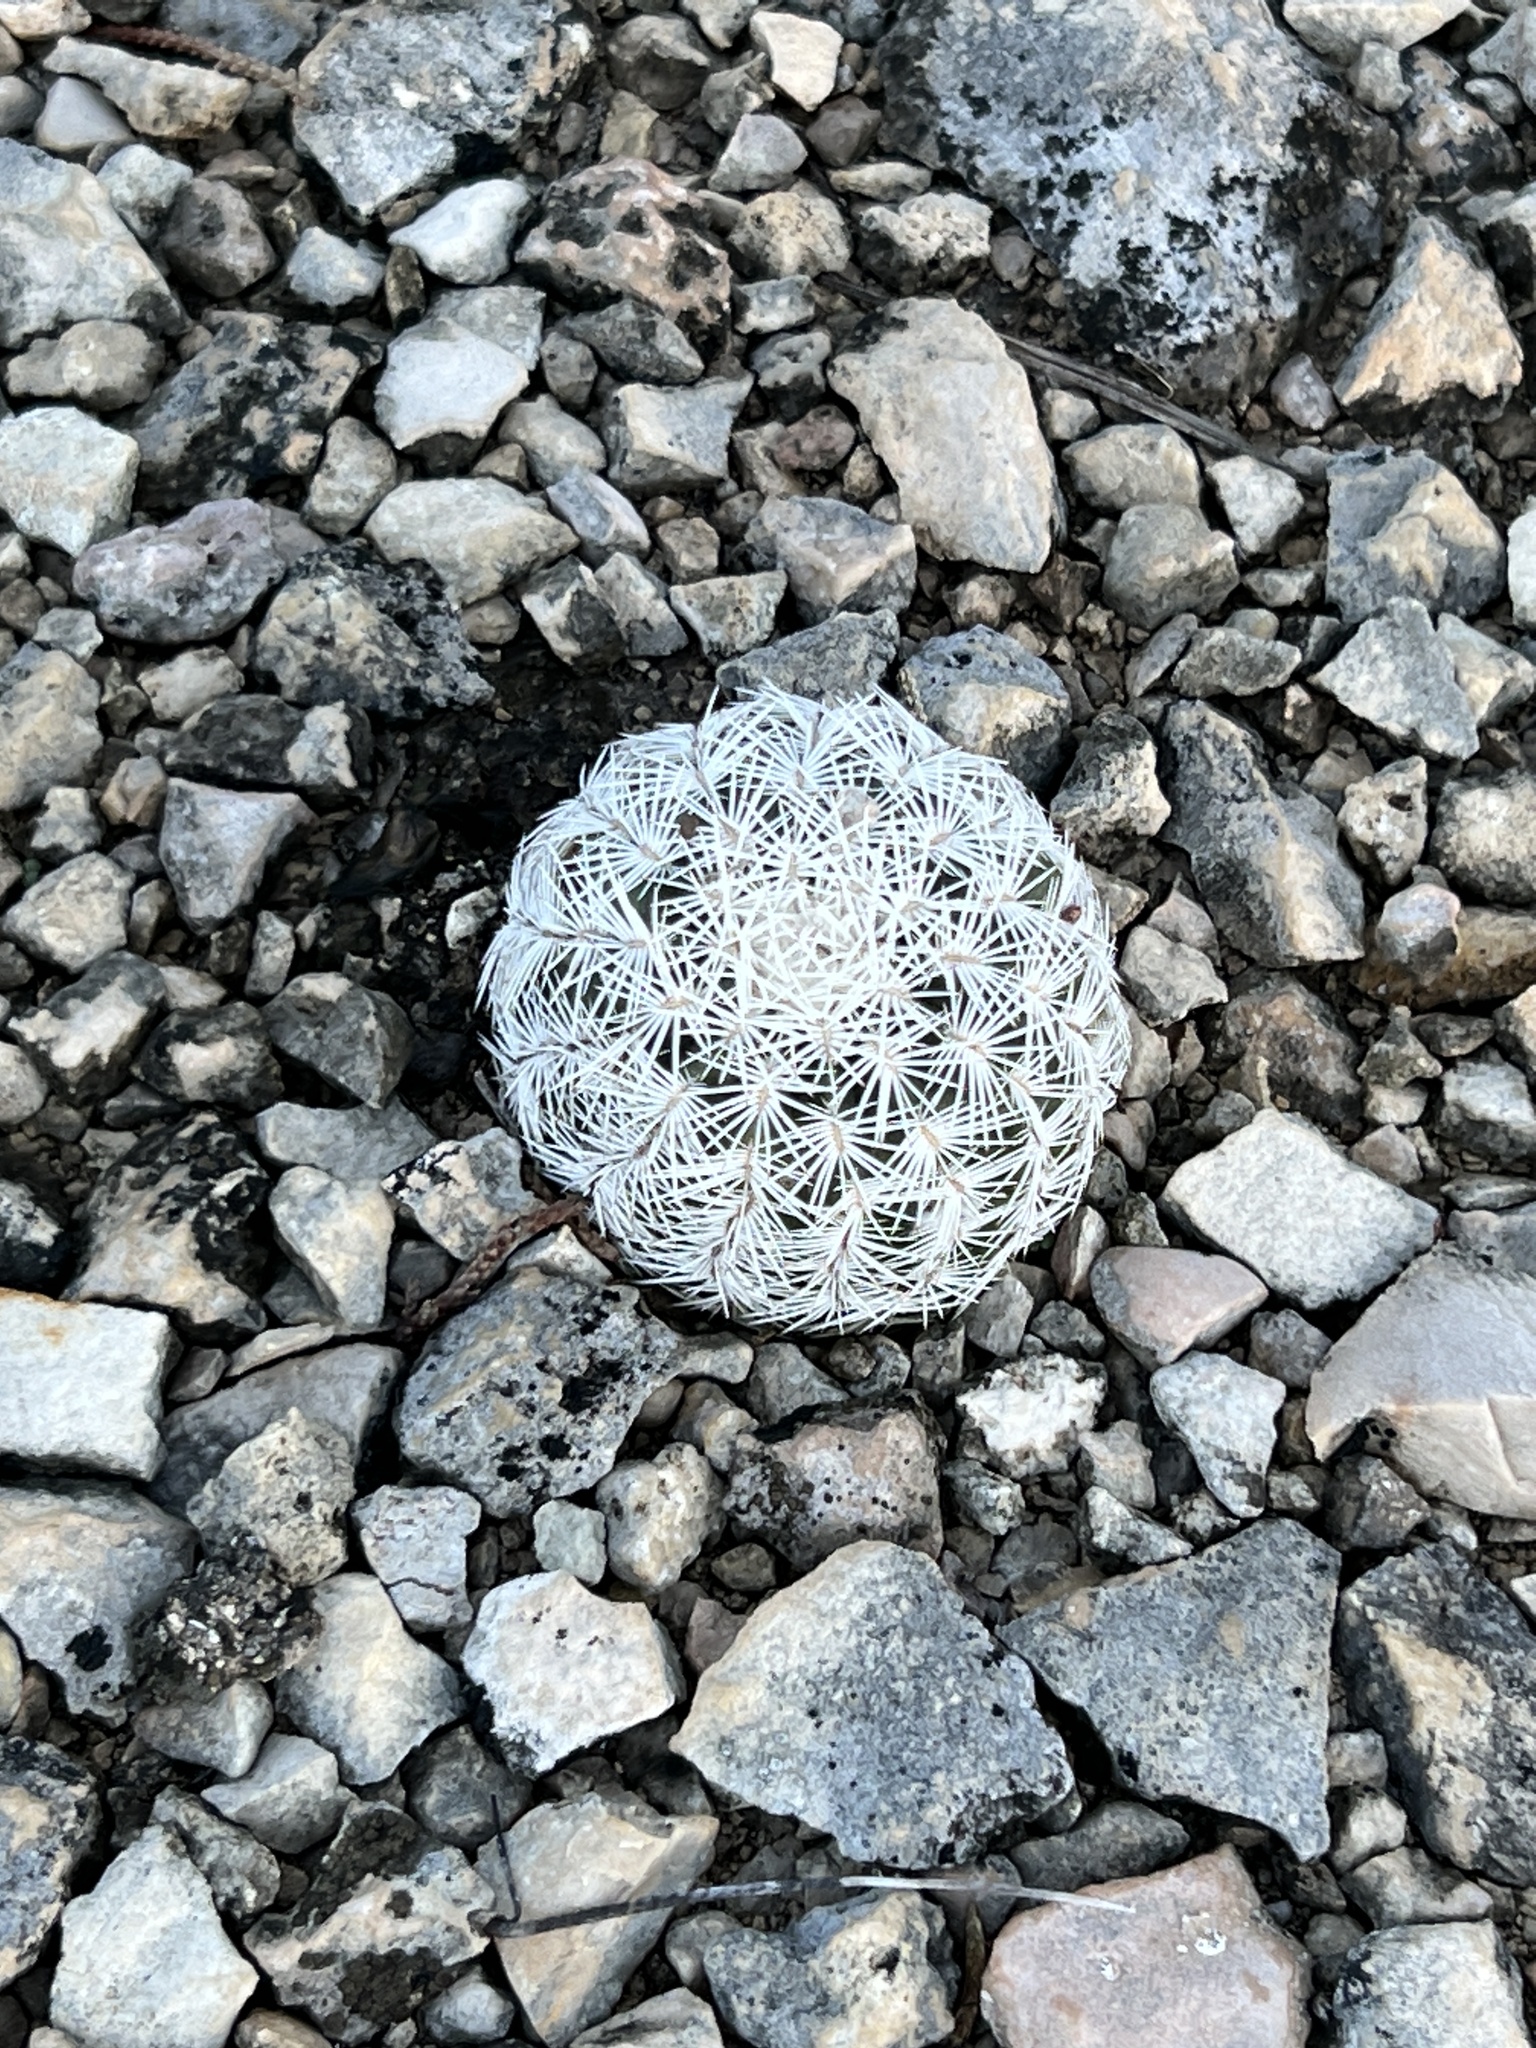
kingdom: Plantae
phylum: Tracheophyta
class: Magnoliopsida
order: Caryophyllales
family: Cactaceae
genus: Echinocereus
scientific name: Echinocereus reichenbachii
